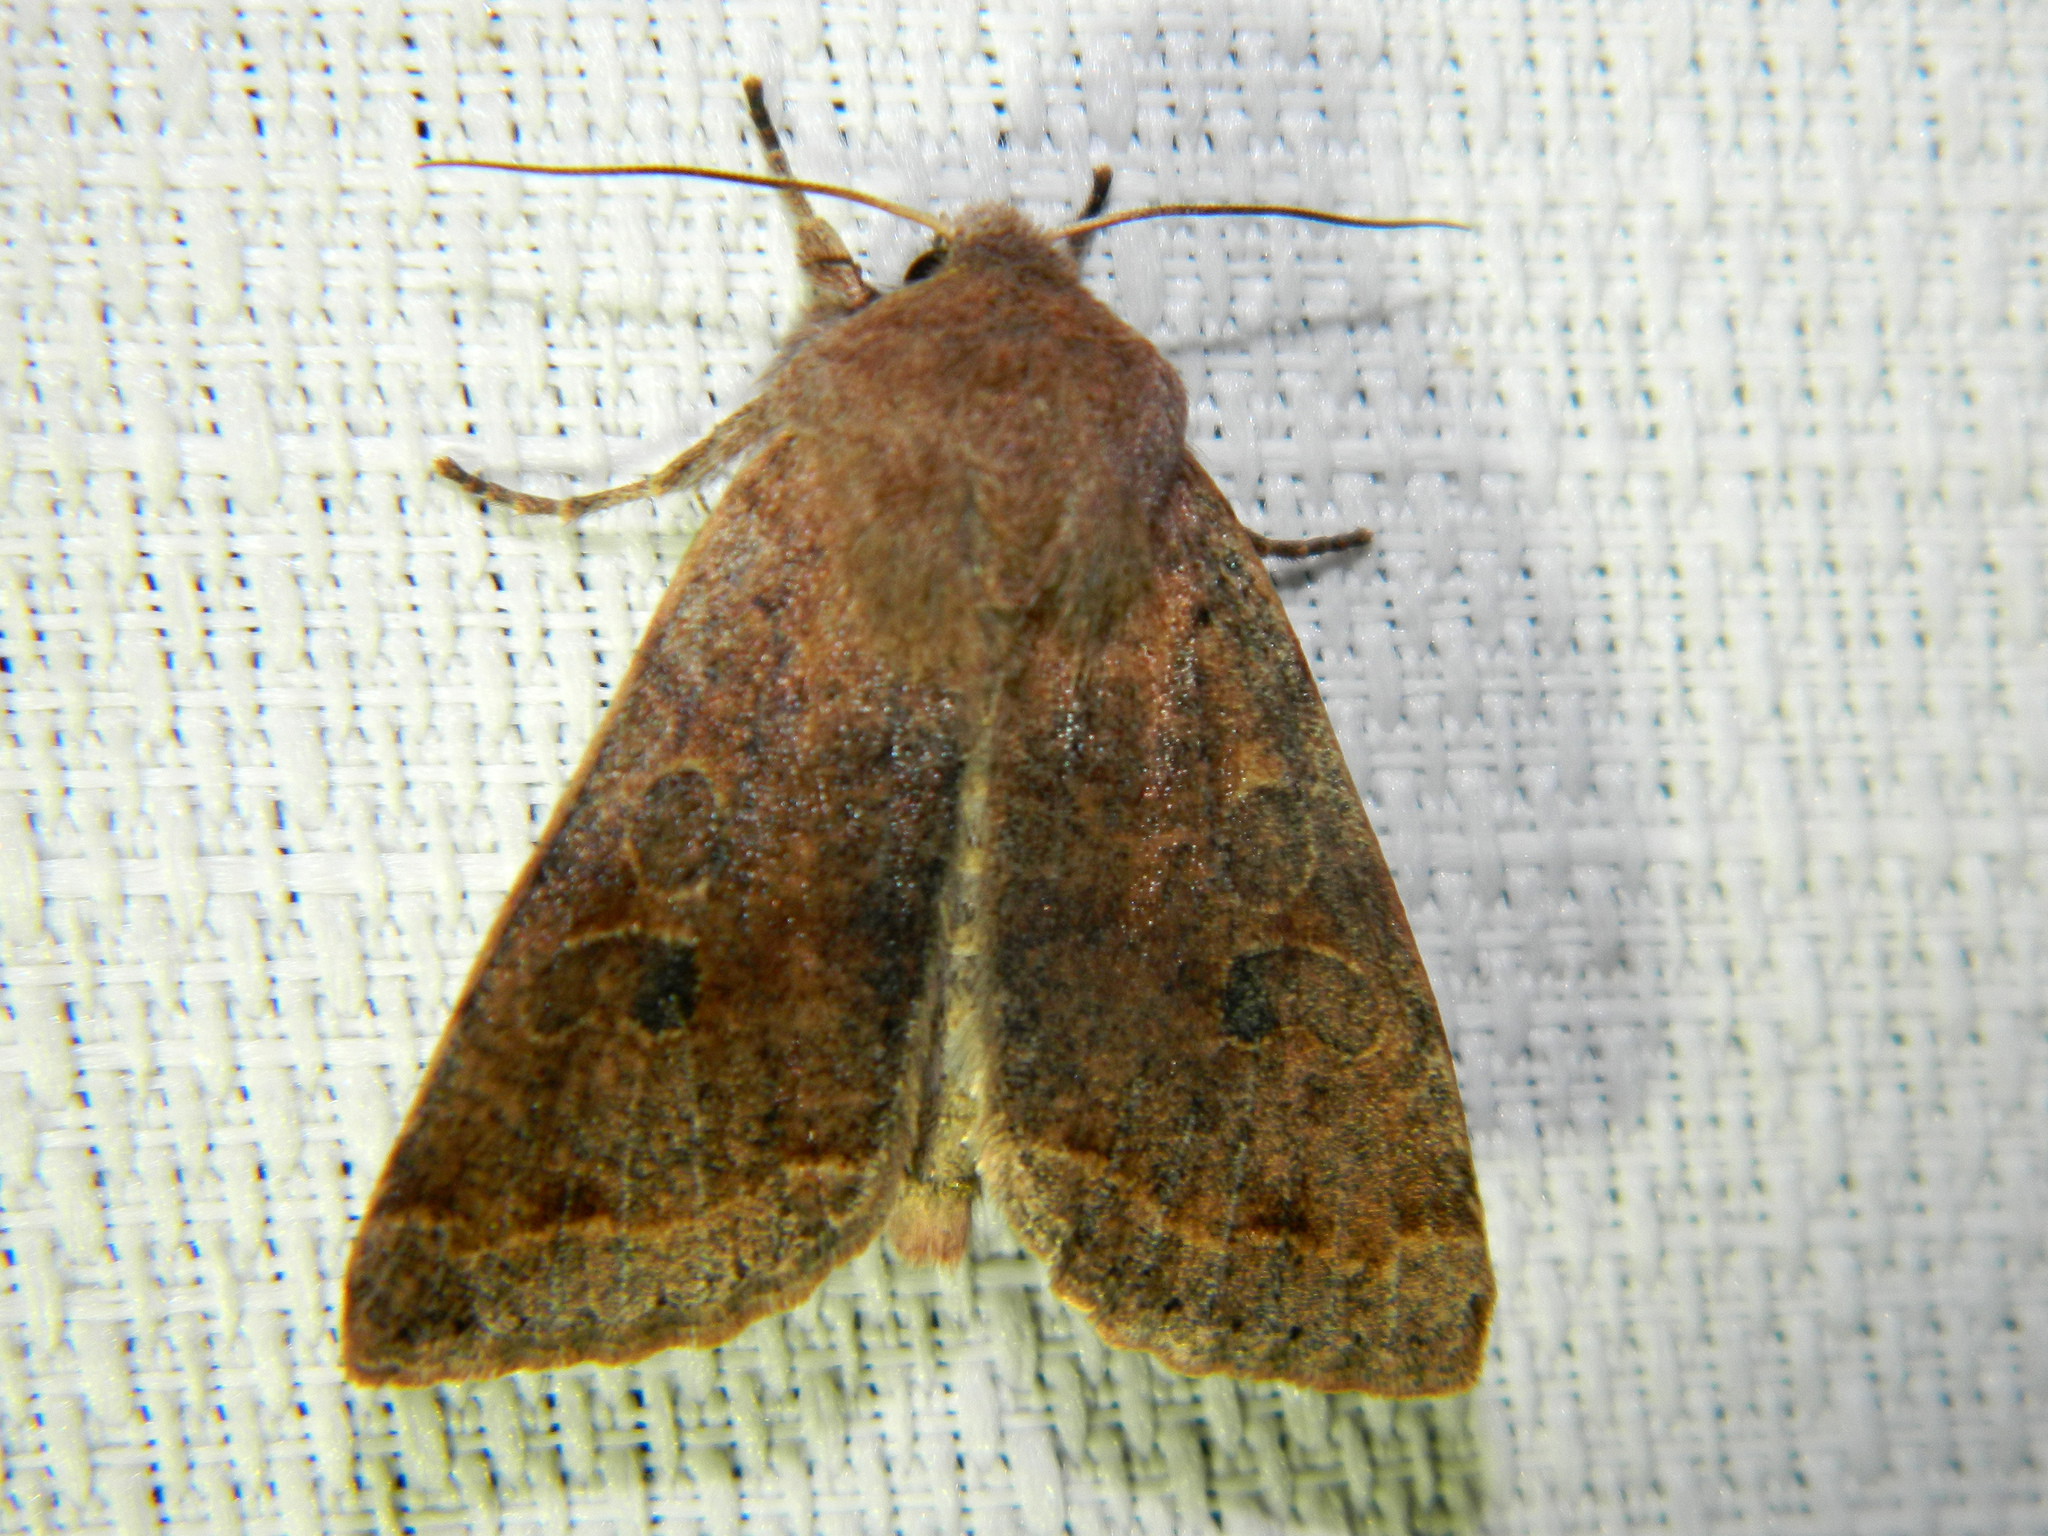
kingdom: Animalia
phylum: Arthropoda
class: Insecta
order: Lepidoptera
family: Noctuidae
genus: Orthosia
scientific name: Orthosia hibisci
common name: Green fruitworm
